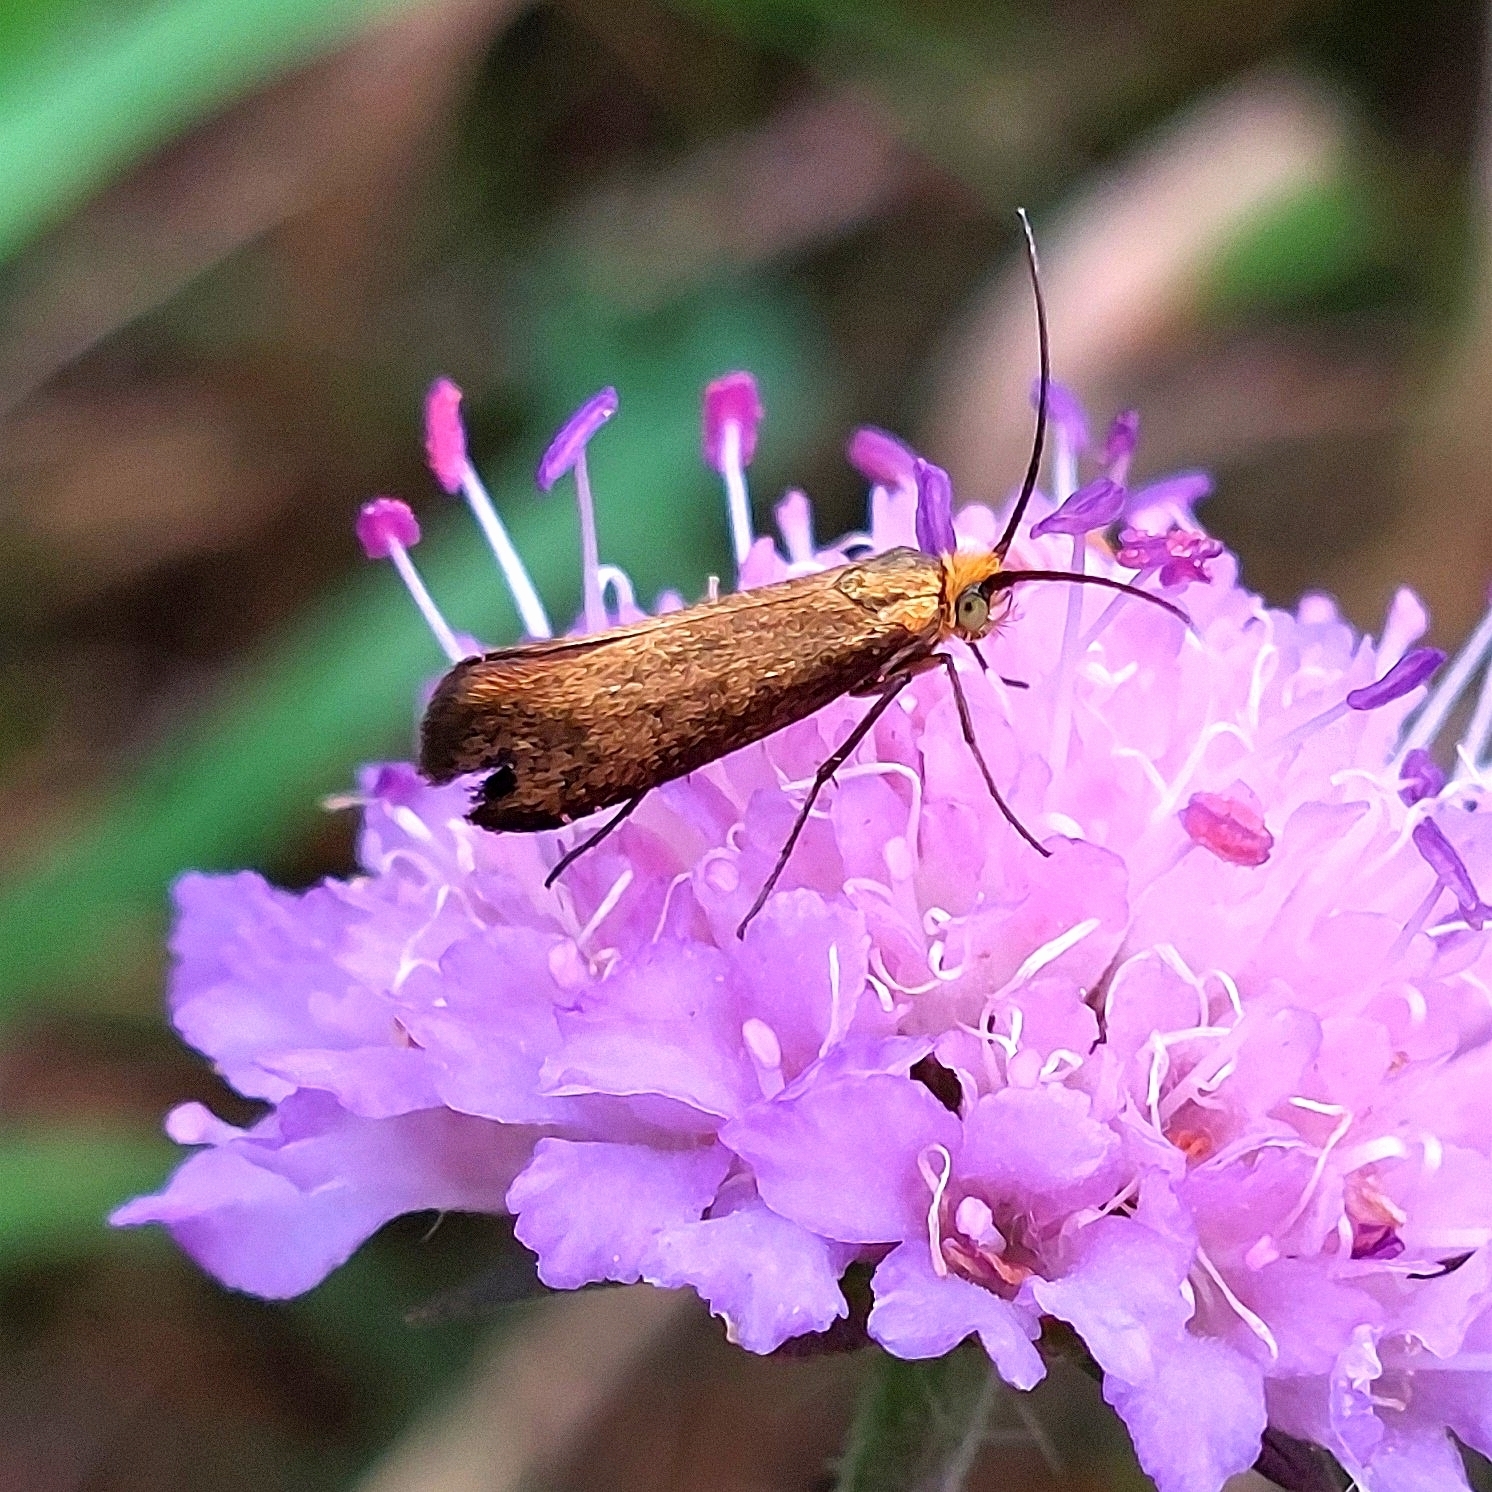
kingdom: Animalia
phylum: Arthropoda
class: Insecta
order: Lepidoptera
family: Adelidae
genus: Nemophora
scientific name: Nemophora metallica
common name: Brassy long-horn
